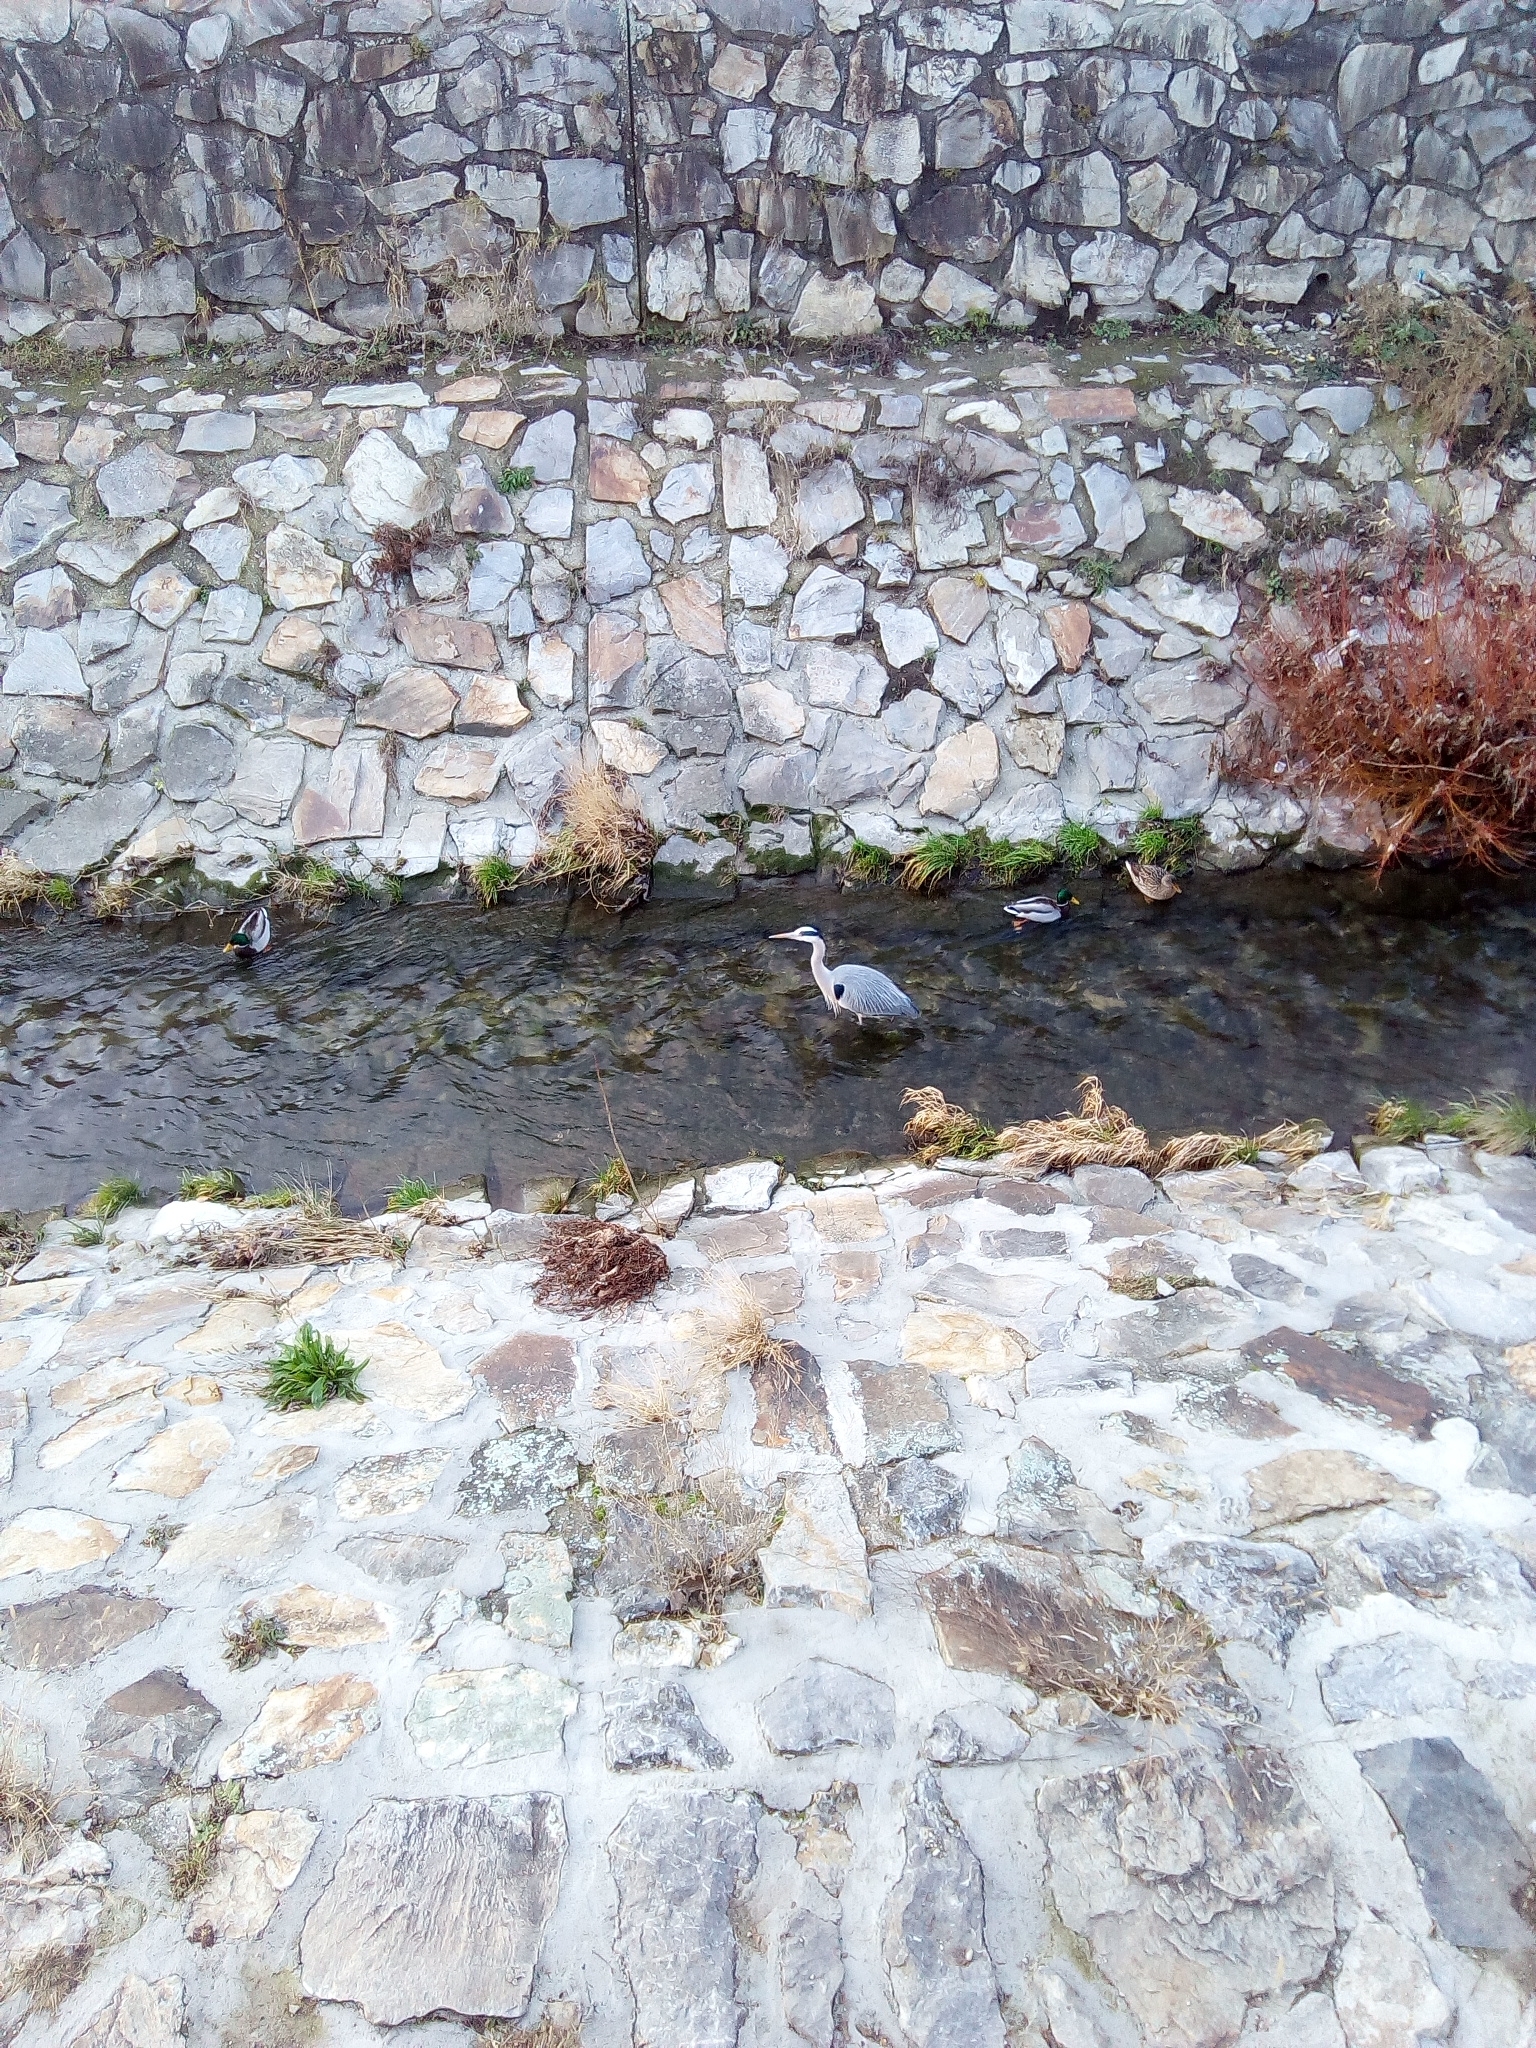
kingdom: Animalia
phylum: Chordata
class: Aves
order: Pelecaniformes
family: Ardeidae
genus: Ardea
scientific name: Ardea cinerea
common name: Grey heron
